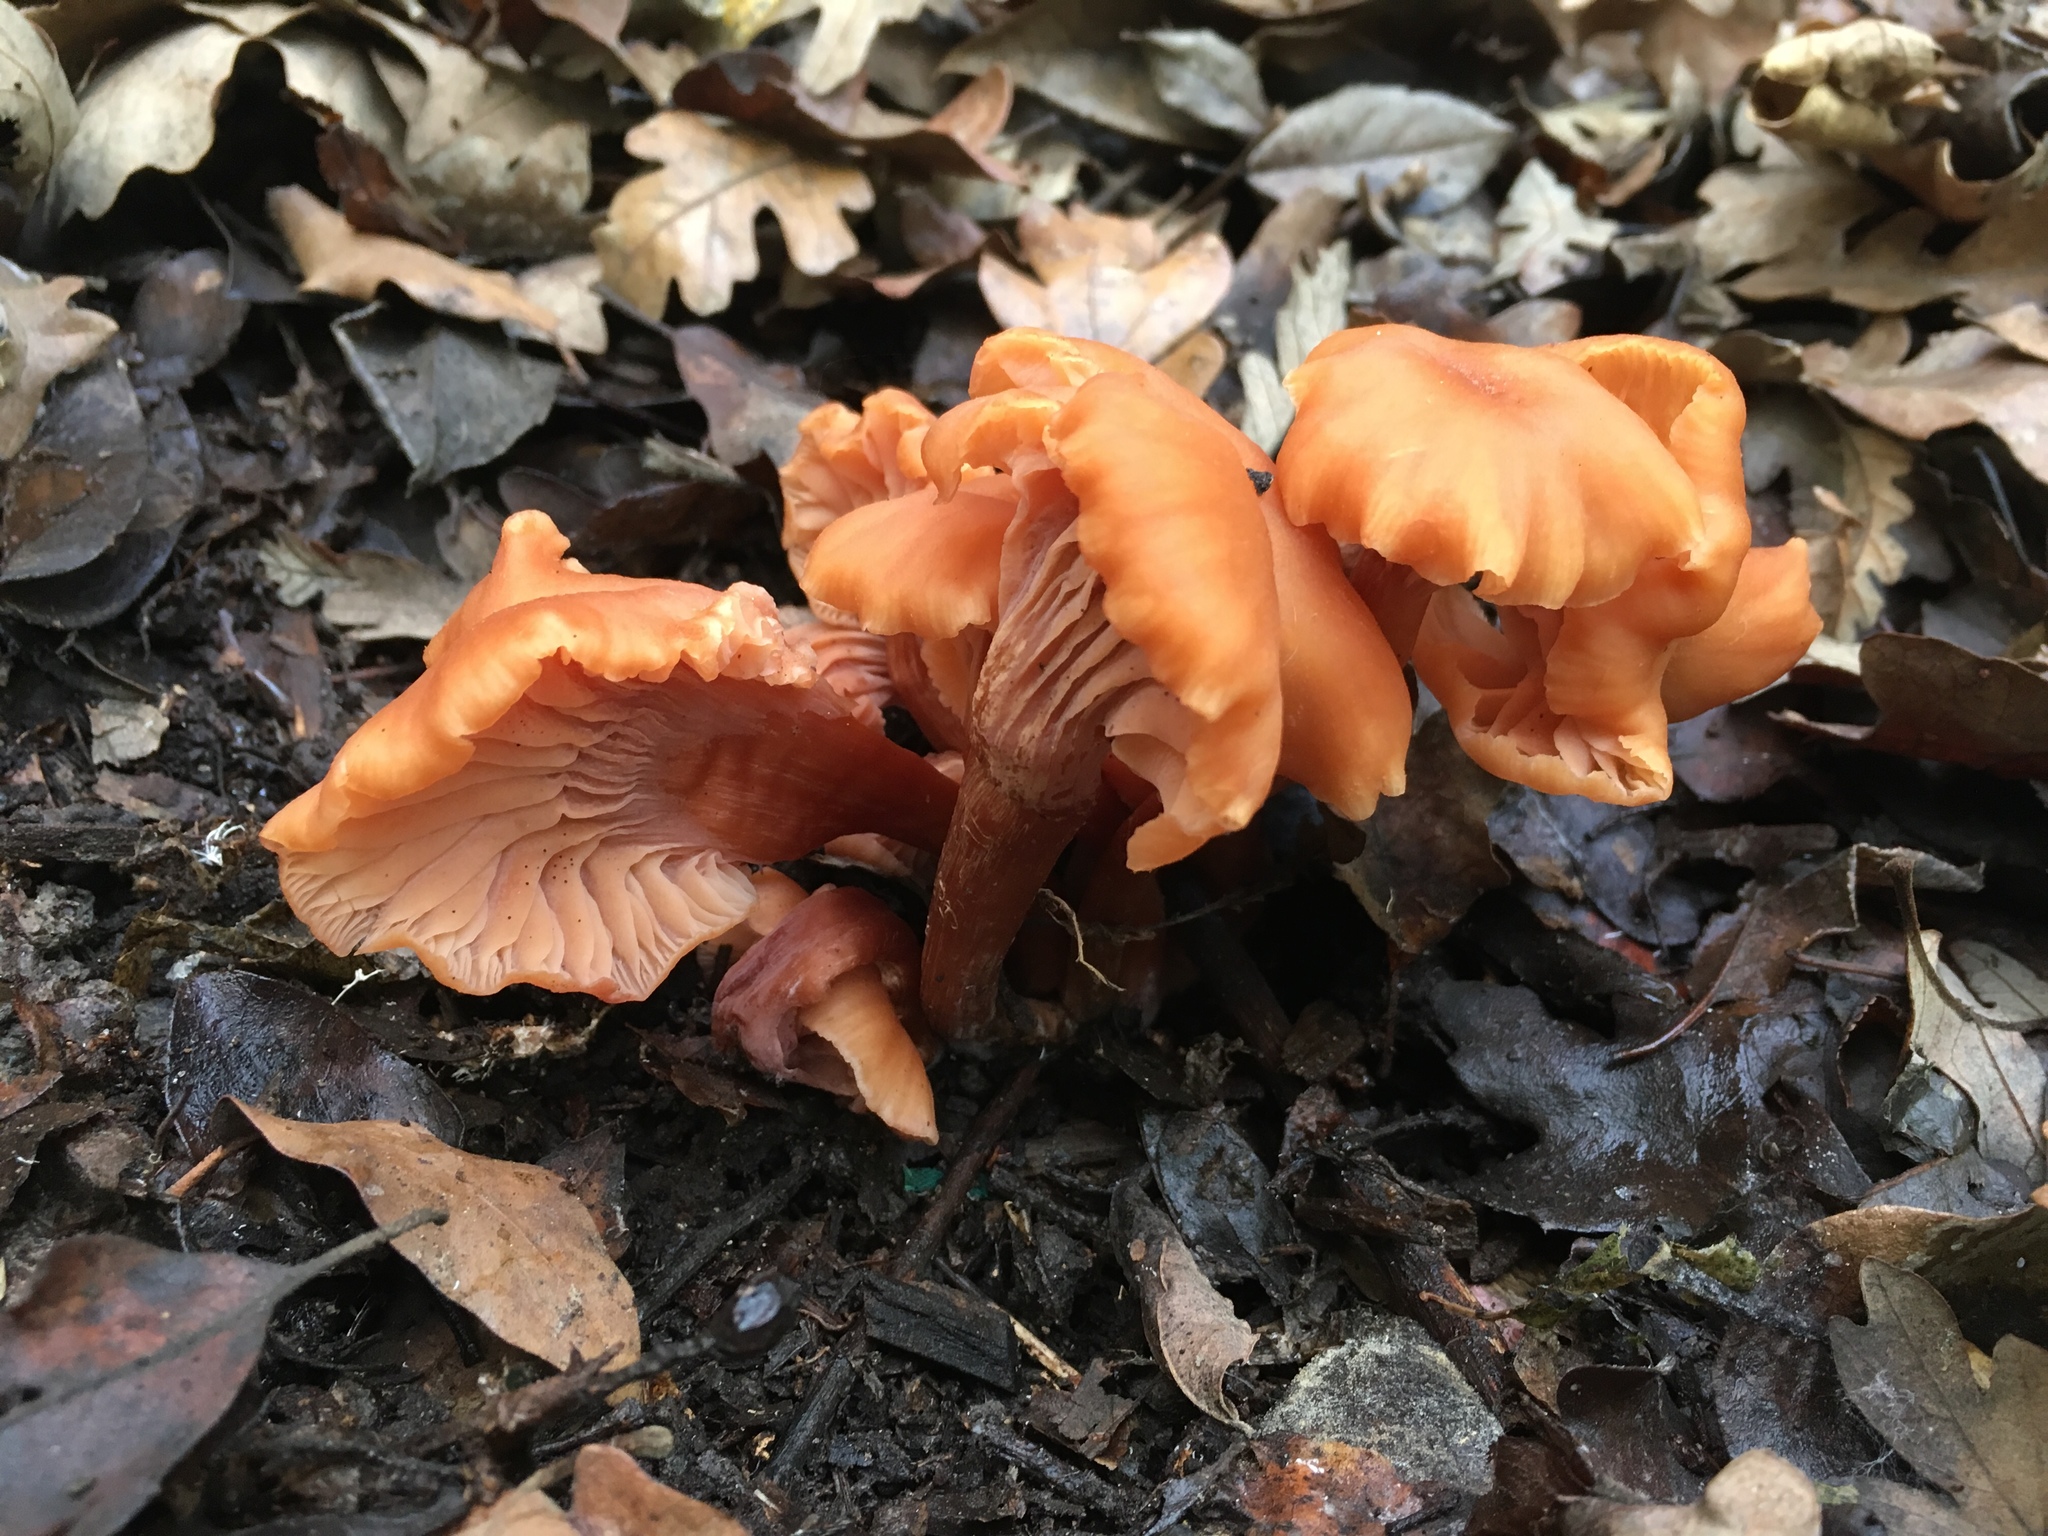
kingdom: Fungi
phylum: Basidiomycota
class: Agaricomycetes
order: Agaricales
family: Hydnangiaceae
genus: Laccaria
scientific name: Laccaria laccata
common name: Deceiver
